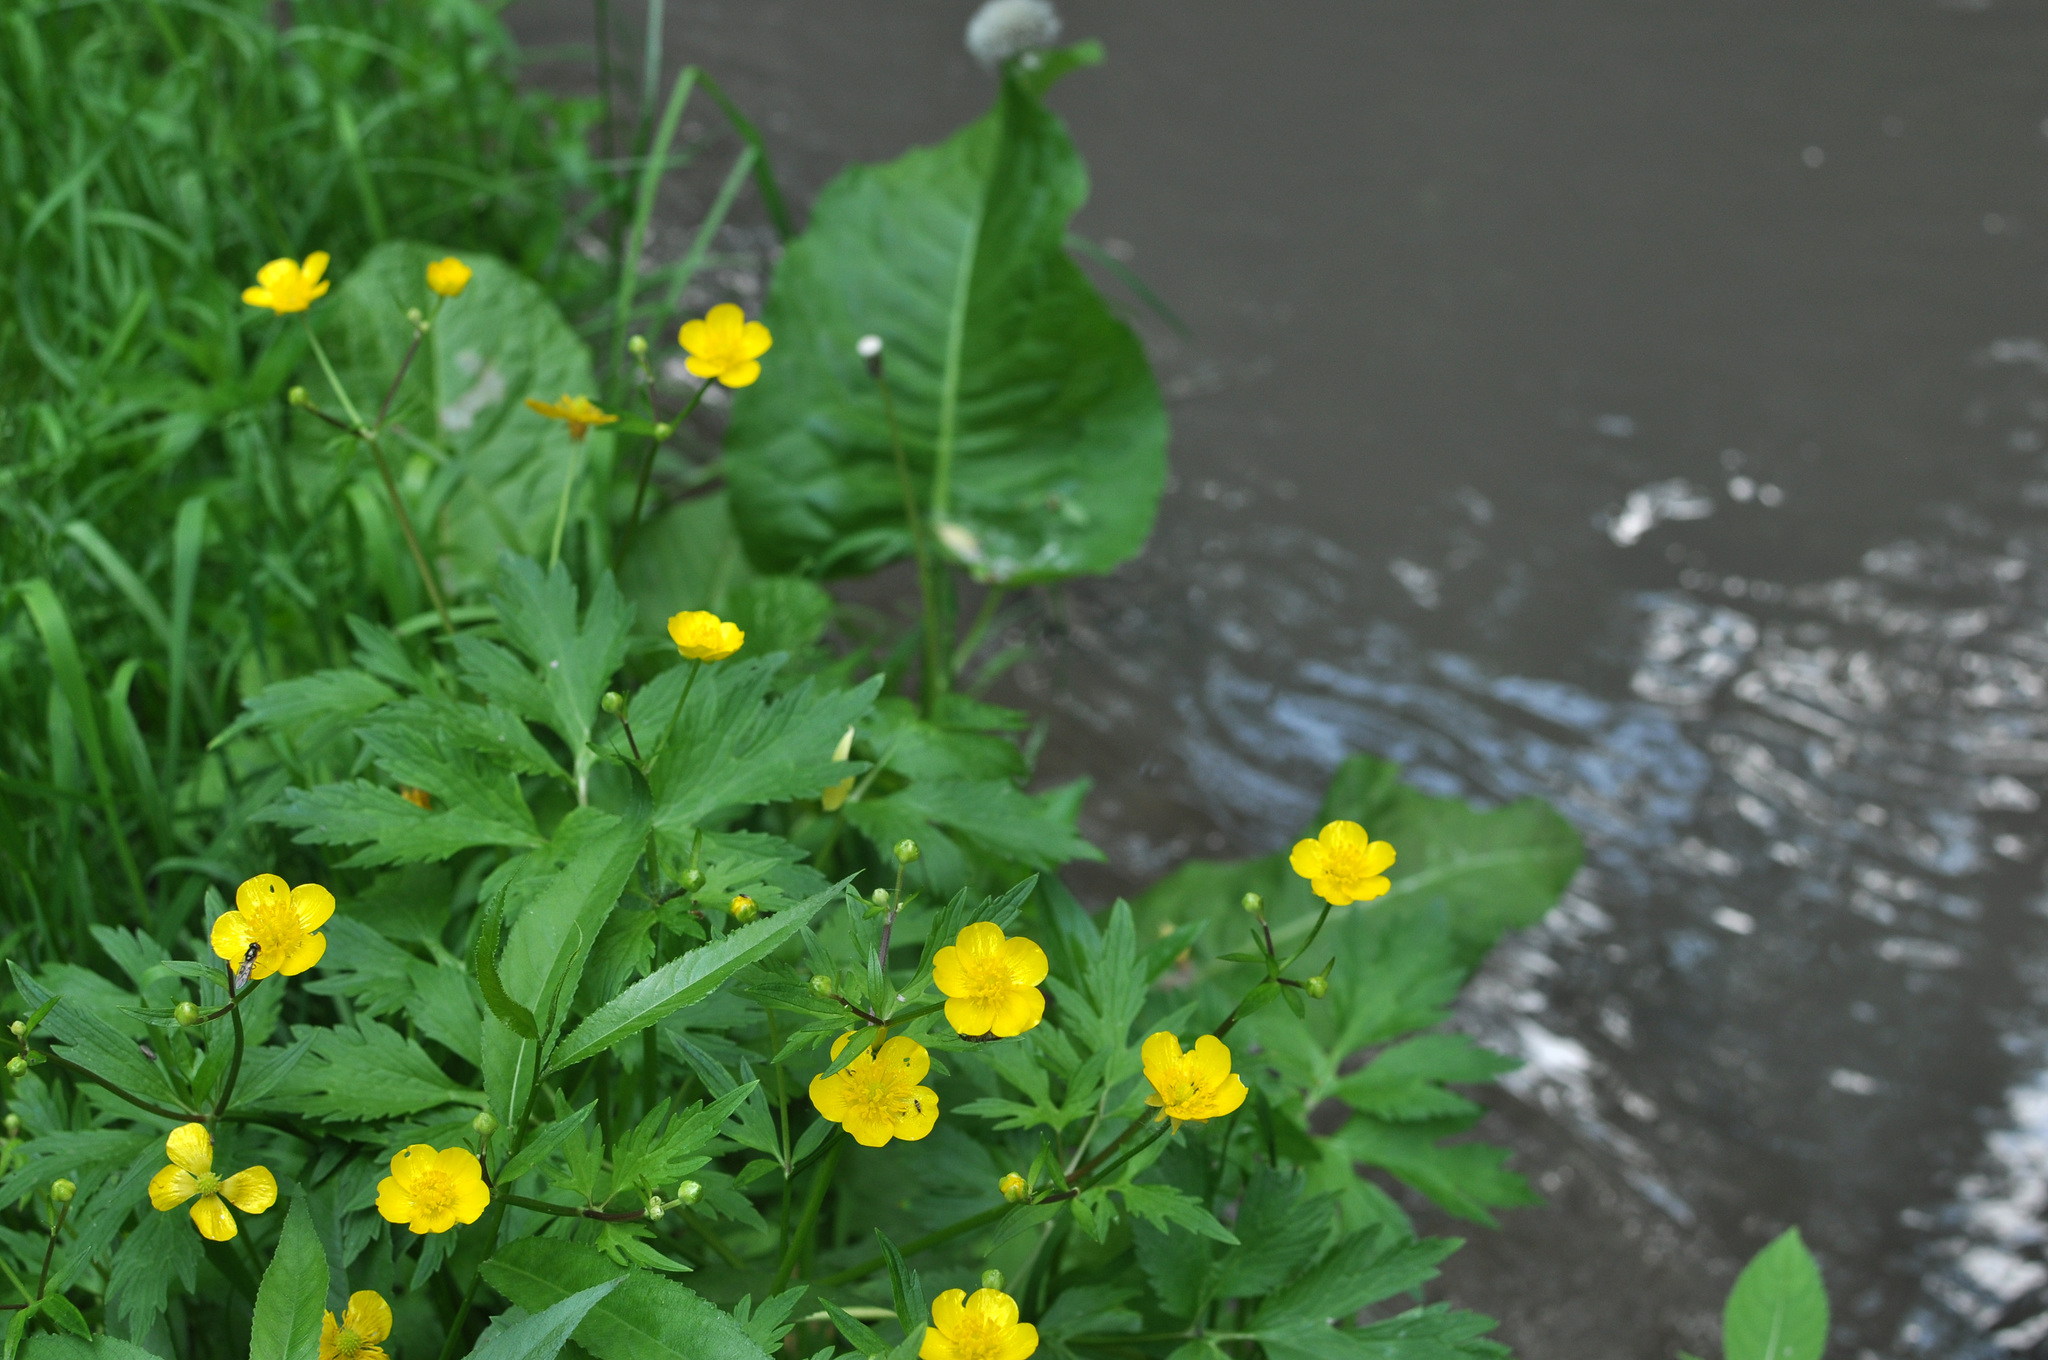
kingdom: Plantae
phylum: Tracheophyta
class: Magnoliopsida
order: Ranunculales
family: Ranunculaceae
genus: Ranunculus
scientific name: Ranunculus repens
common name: Creeping buttercup
